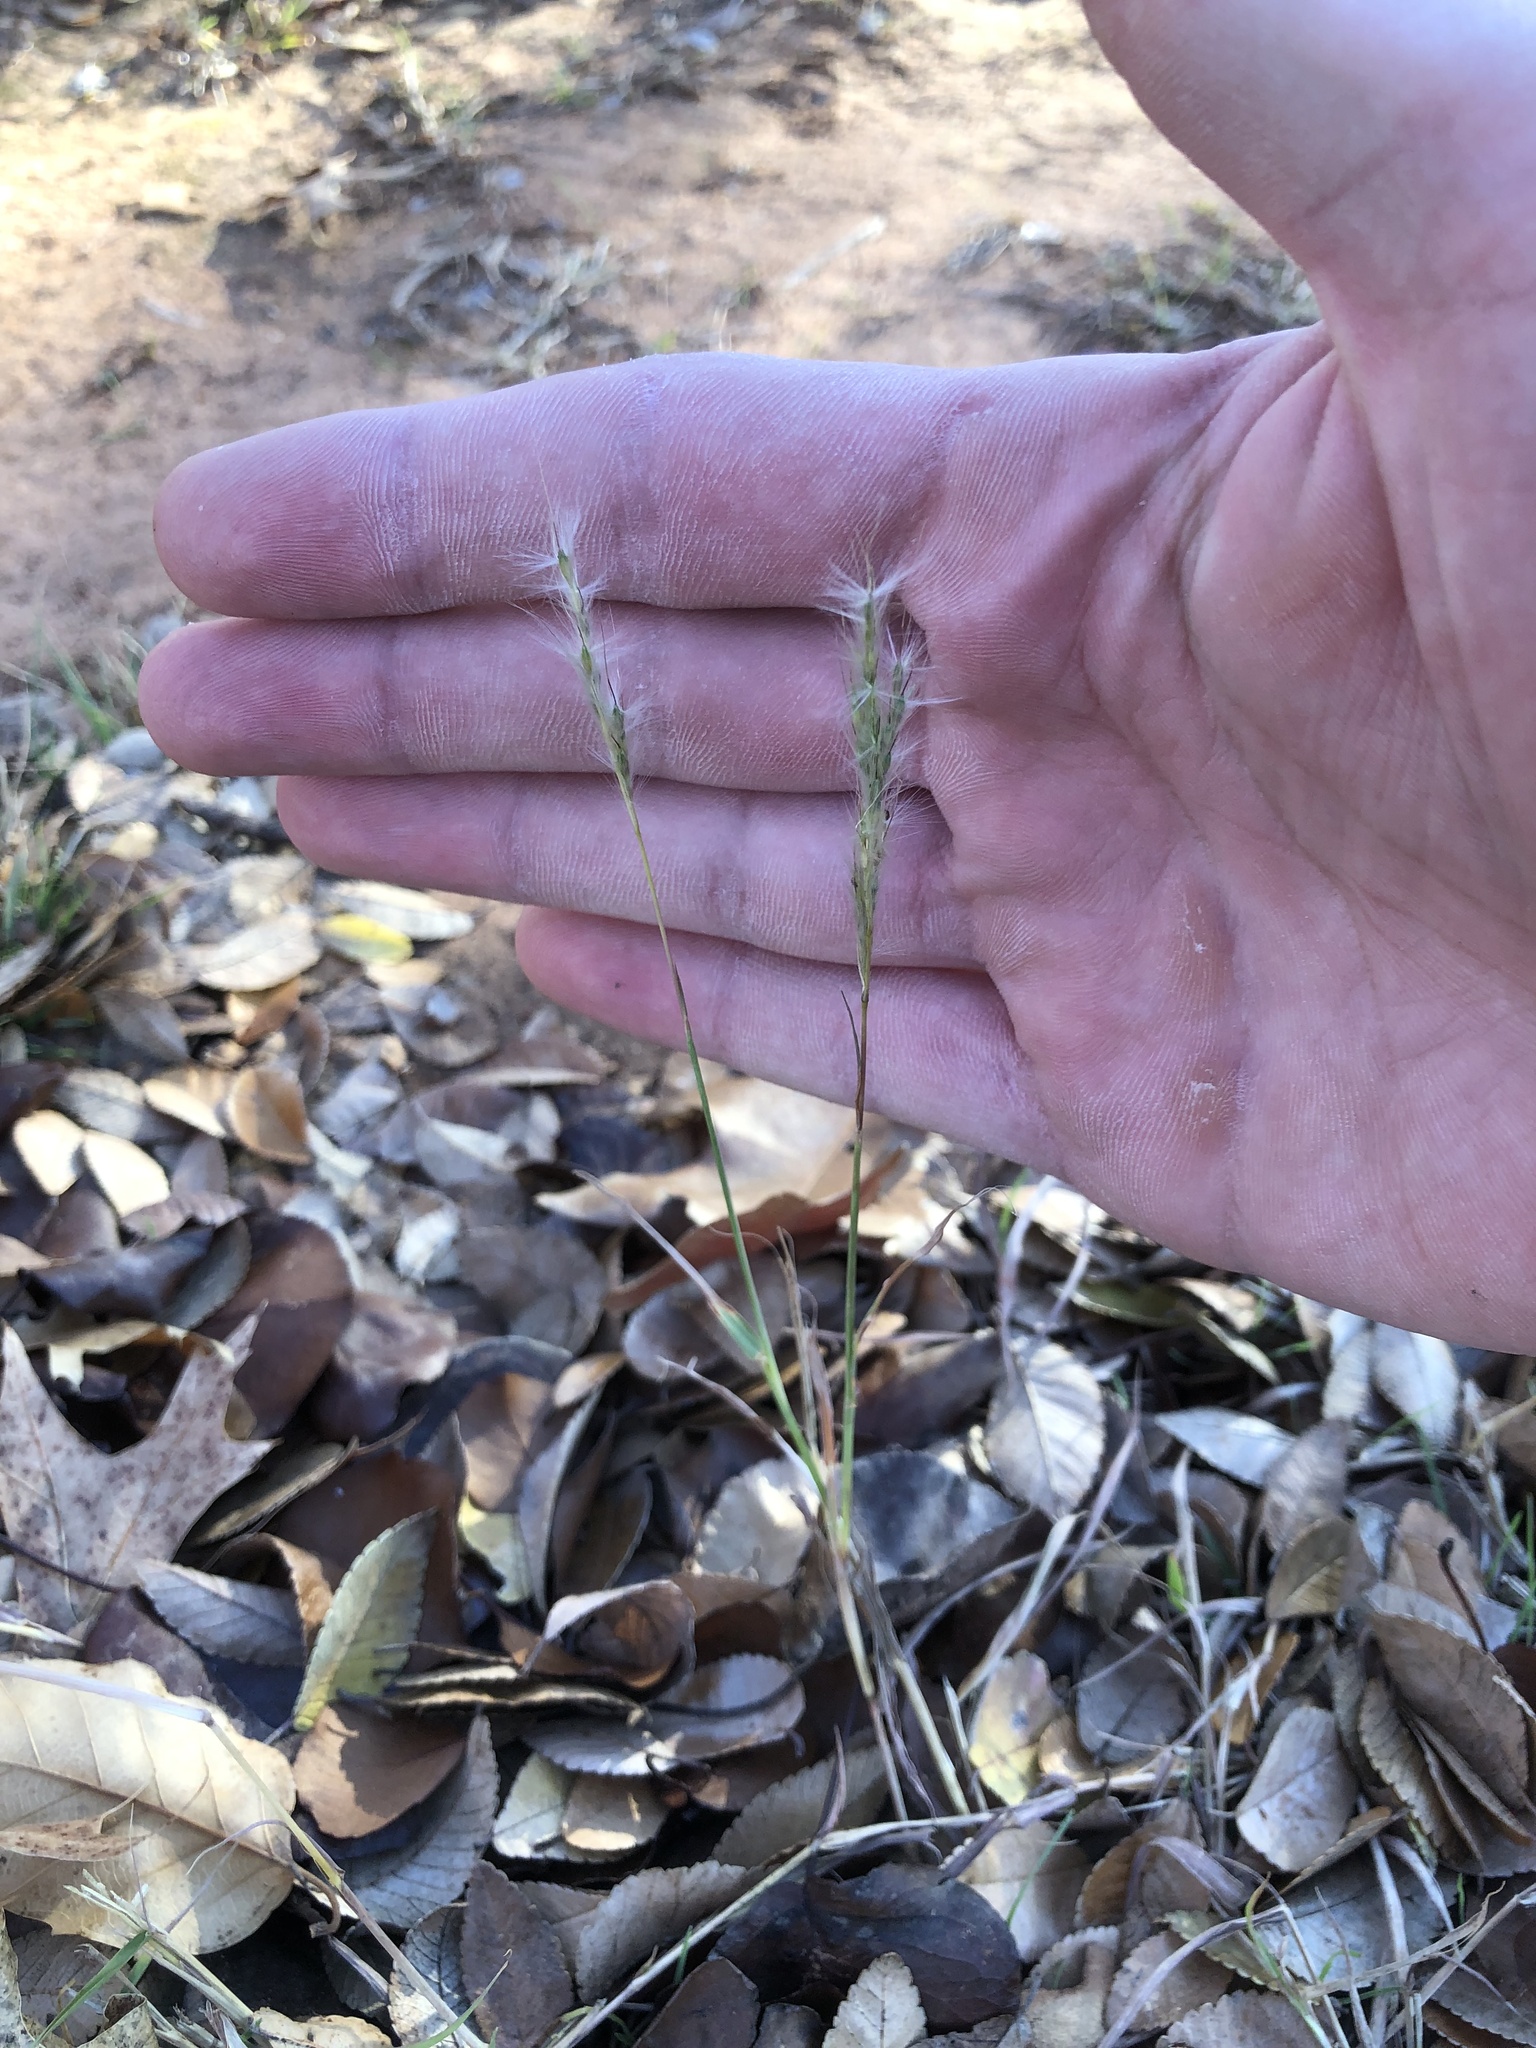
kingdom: Plantae
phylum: Tracheophyta
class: Liliopsida
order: Poales
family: Poaceae
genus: Bothriochloa
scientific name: Bothriochloa torreyana
